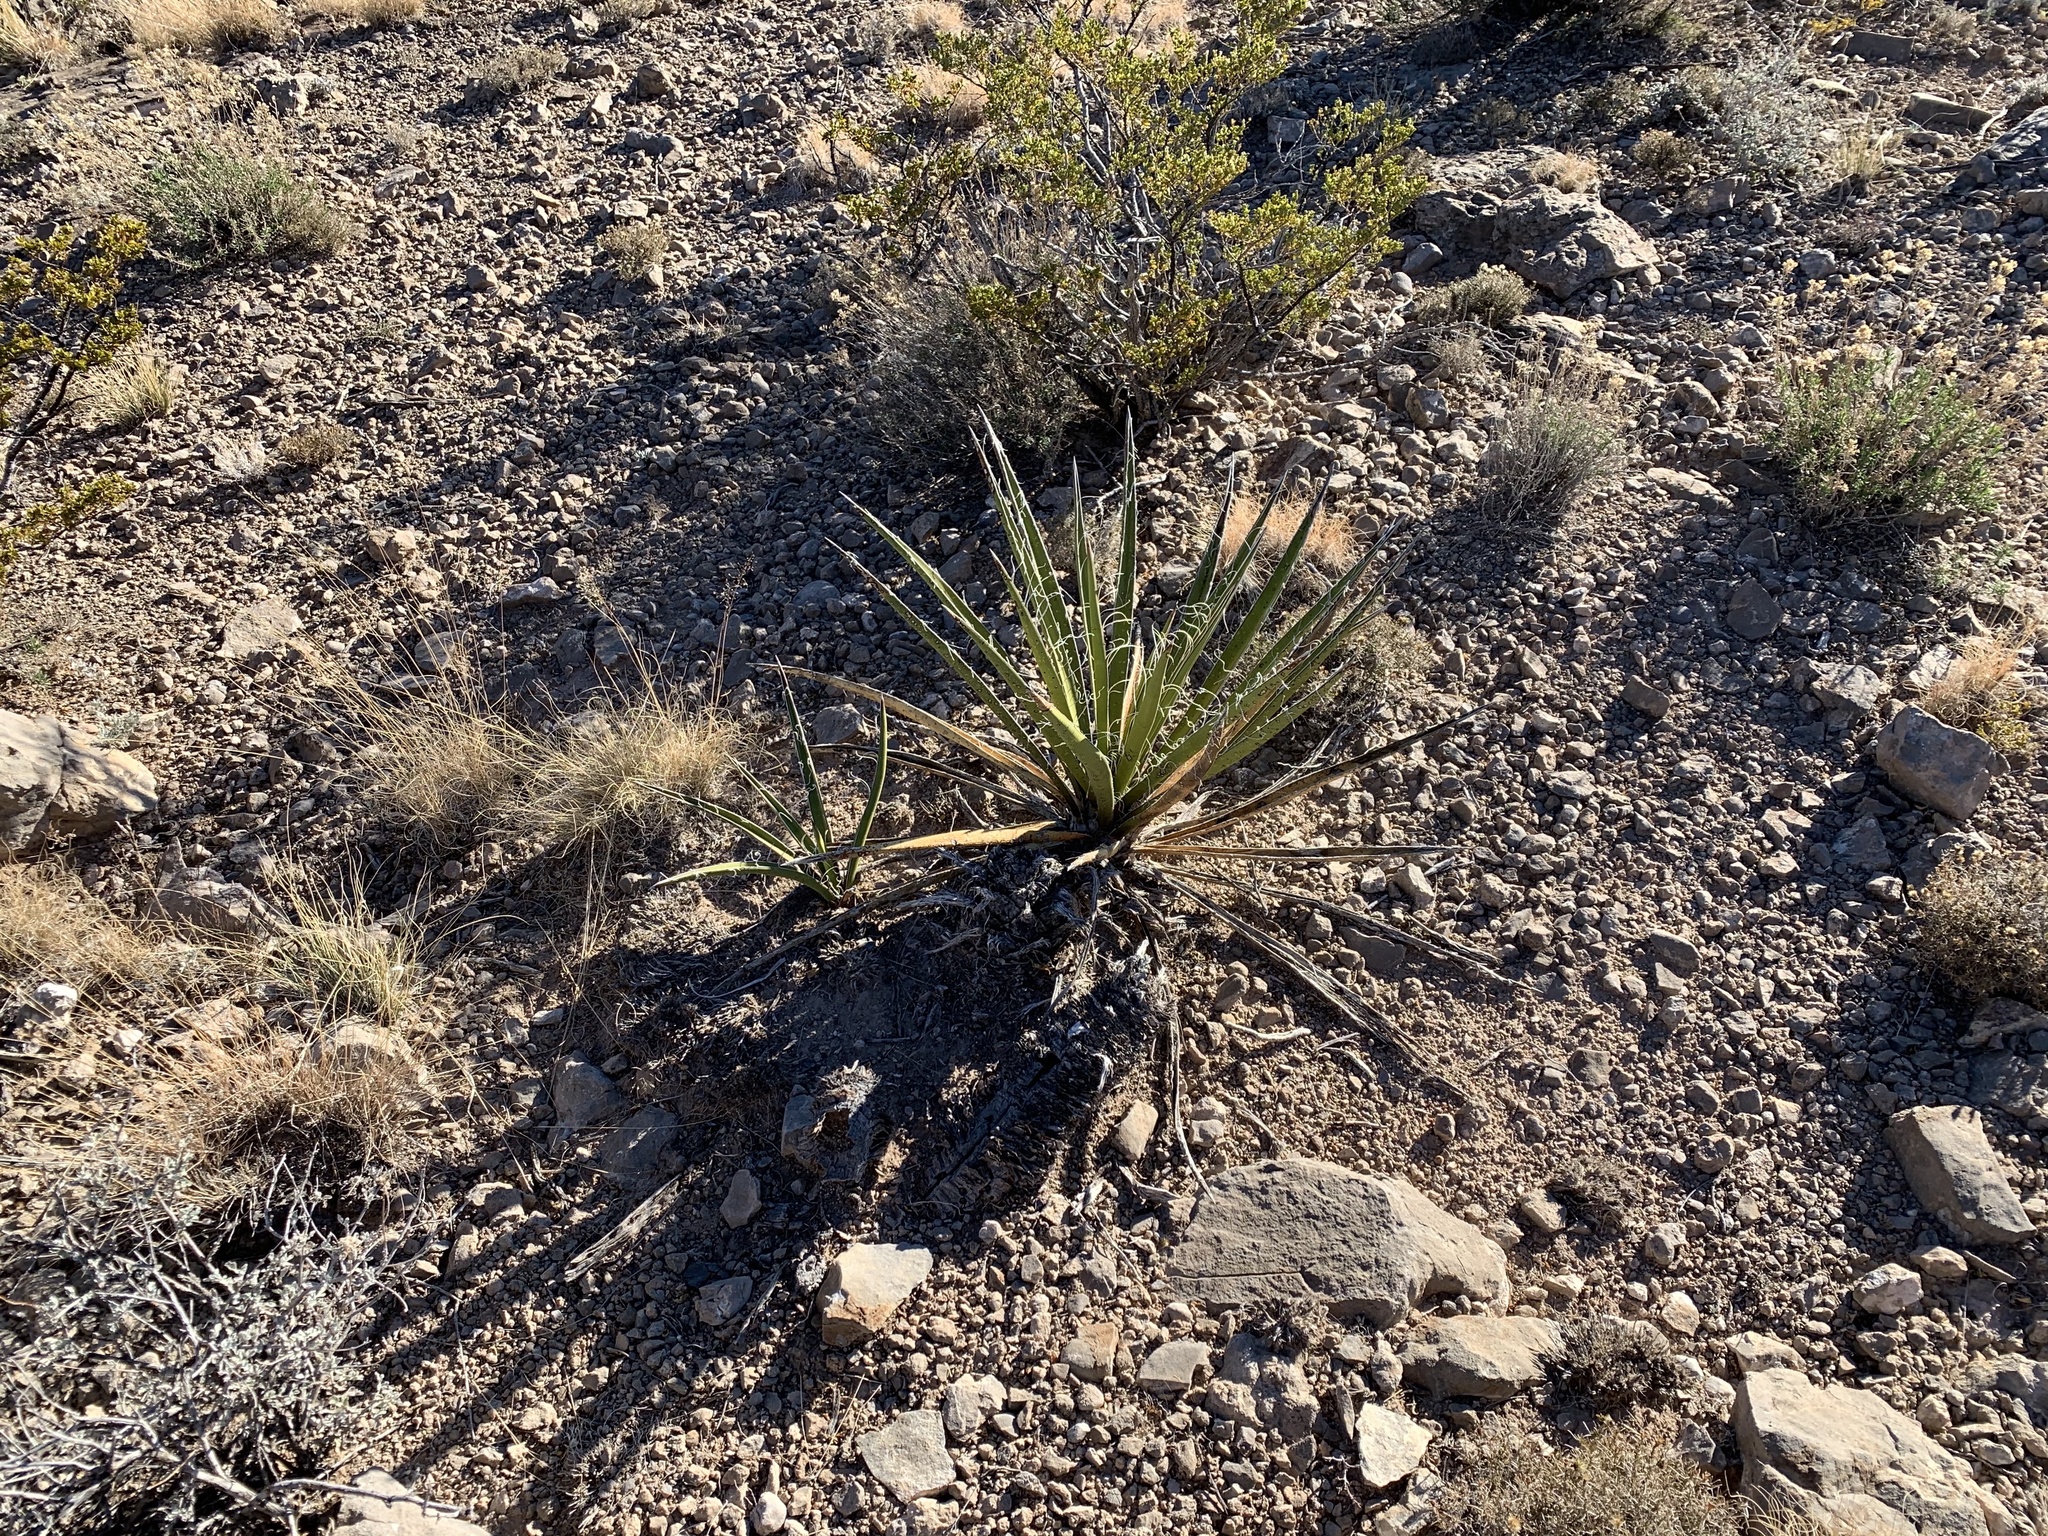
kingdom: Plantae
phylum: Tracheophyta
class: Liliopsida
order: Asparagales
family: Asparagaceae
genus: Yucca
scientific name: Yucca baccata
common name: Banana yucca
